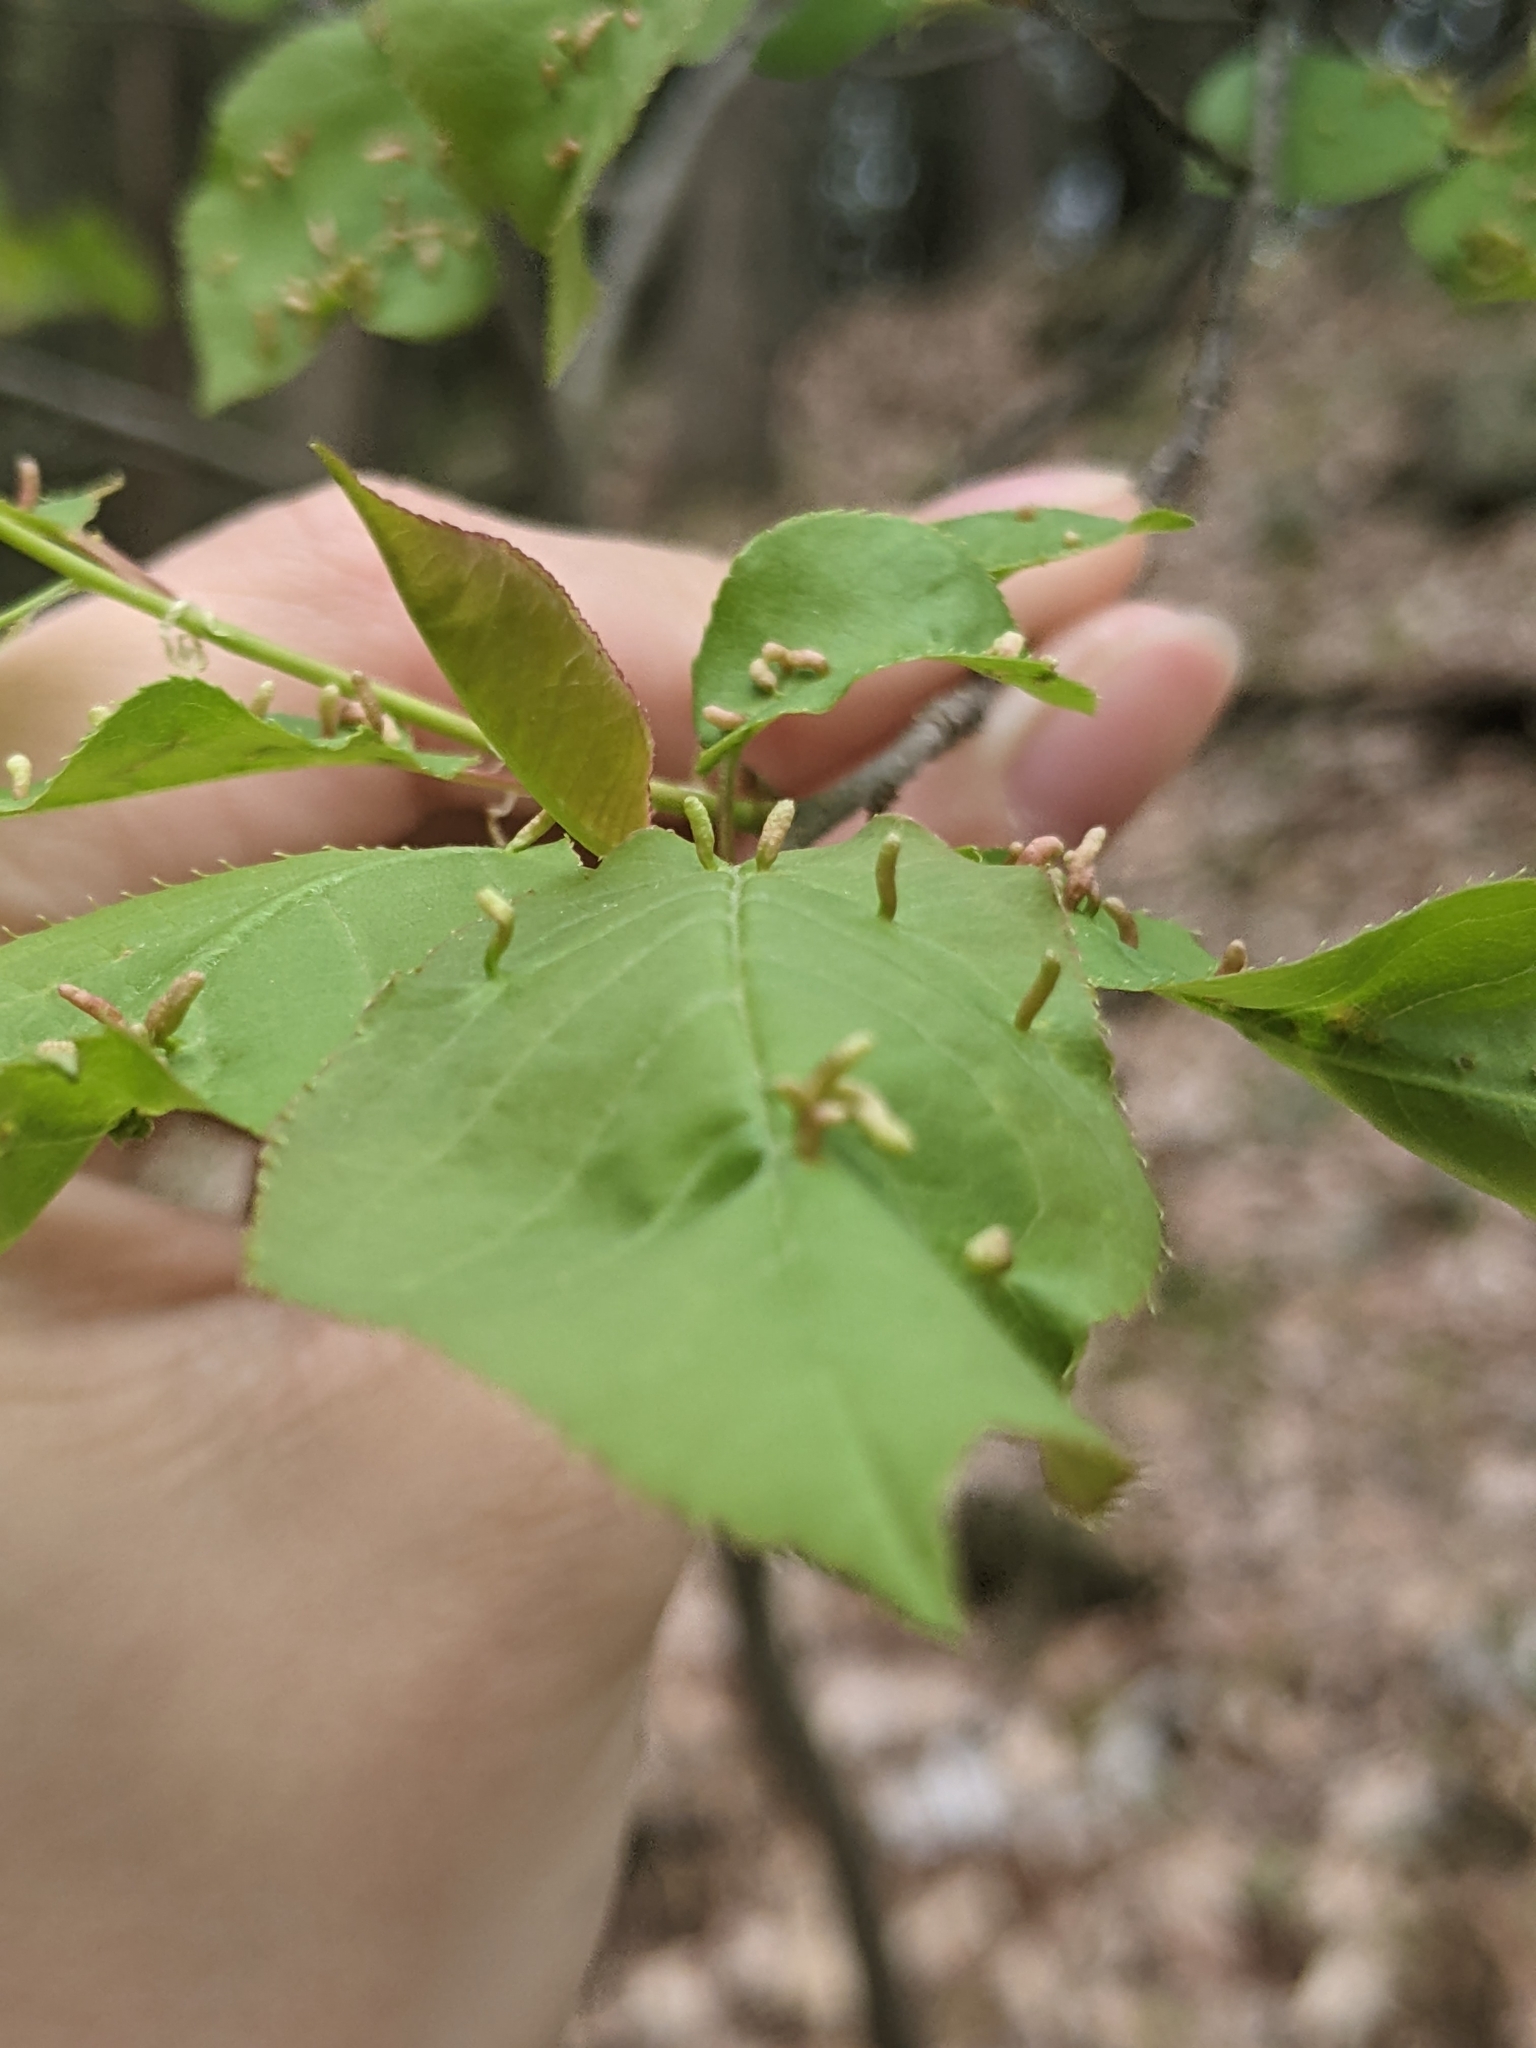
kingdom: Animalia
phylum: Arthropoda
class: Arachnida
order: Trombidiformes
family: Eriophyidae
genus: Eriophyes
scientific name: Eriophyes emarginatae
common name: Plum leaf gall mite
